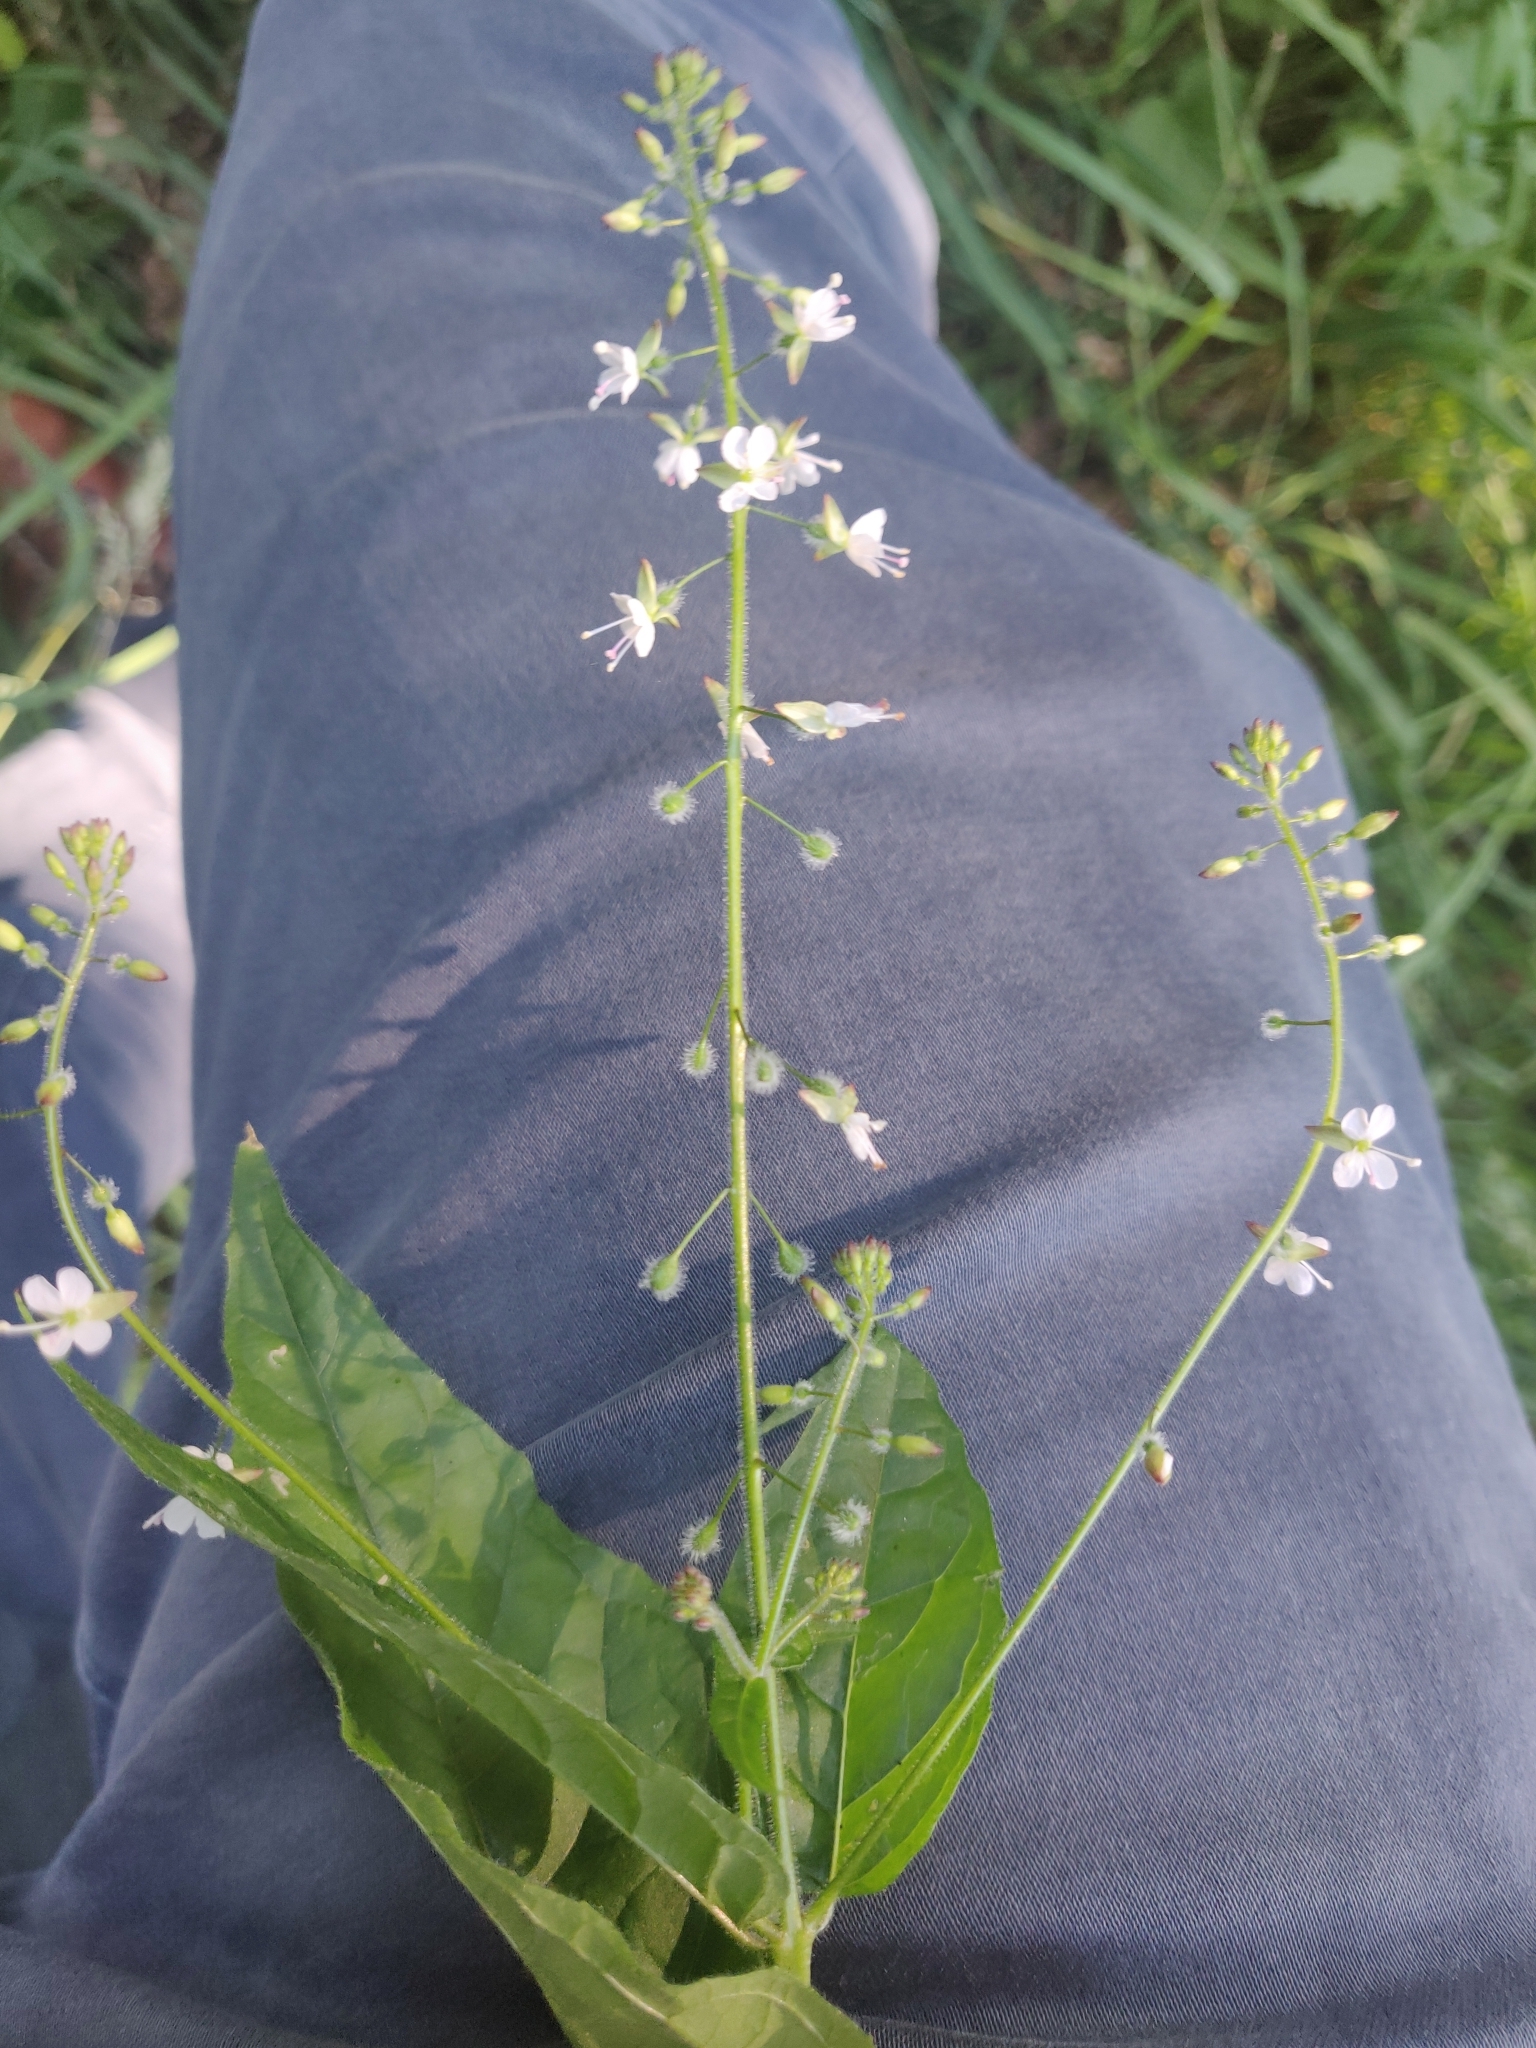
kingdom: Plantae
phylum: Tracheophyta
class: Magnoliopsida
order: Myrtales
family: Onagraceae
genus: Circaea
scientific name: Circaea lutetiana
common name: Enchanter's-nightshade
